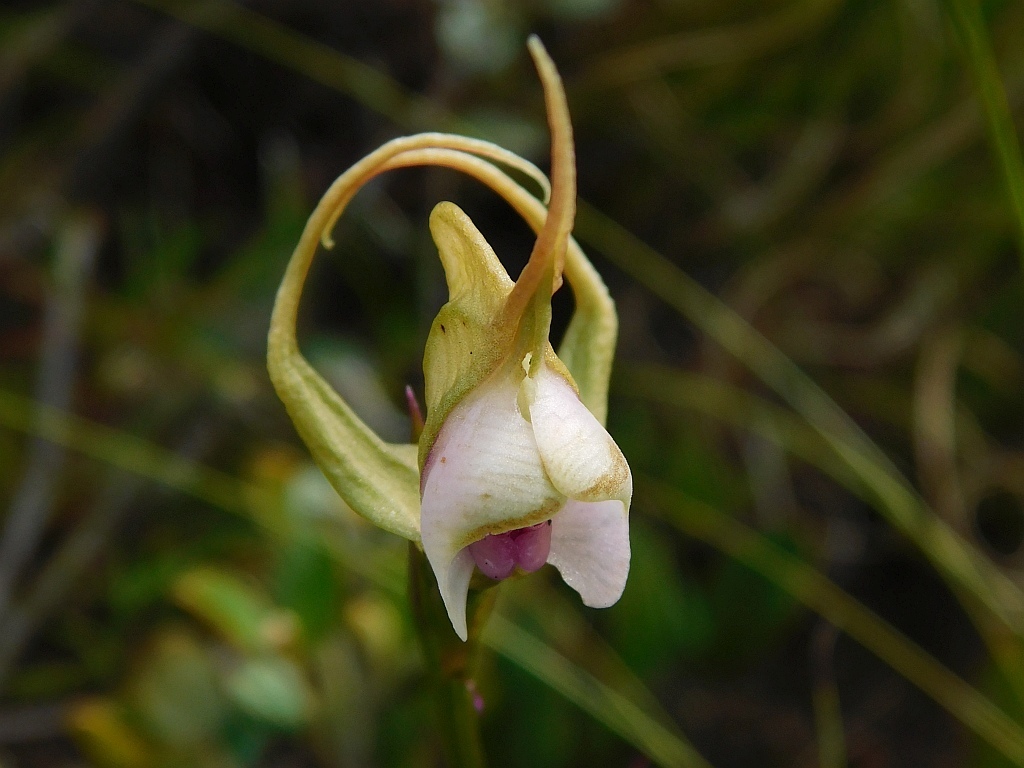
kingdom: Plantae
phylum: Tracheophyta
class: Liliopsida
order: Asparagales
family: Orchidaceae
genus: Disperis
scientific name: Disperis capensis
